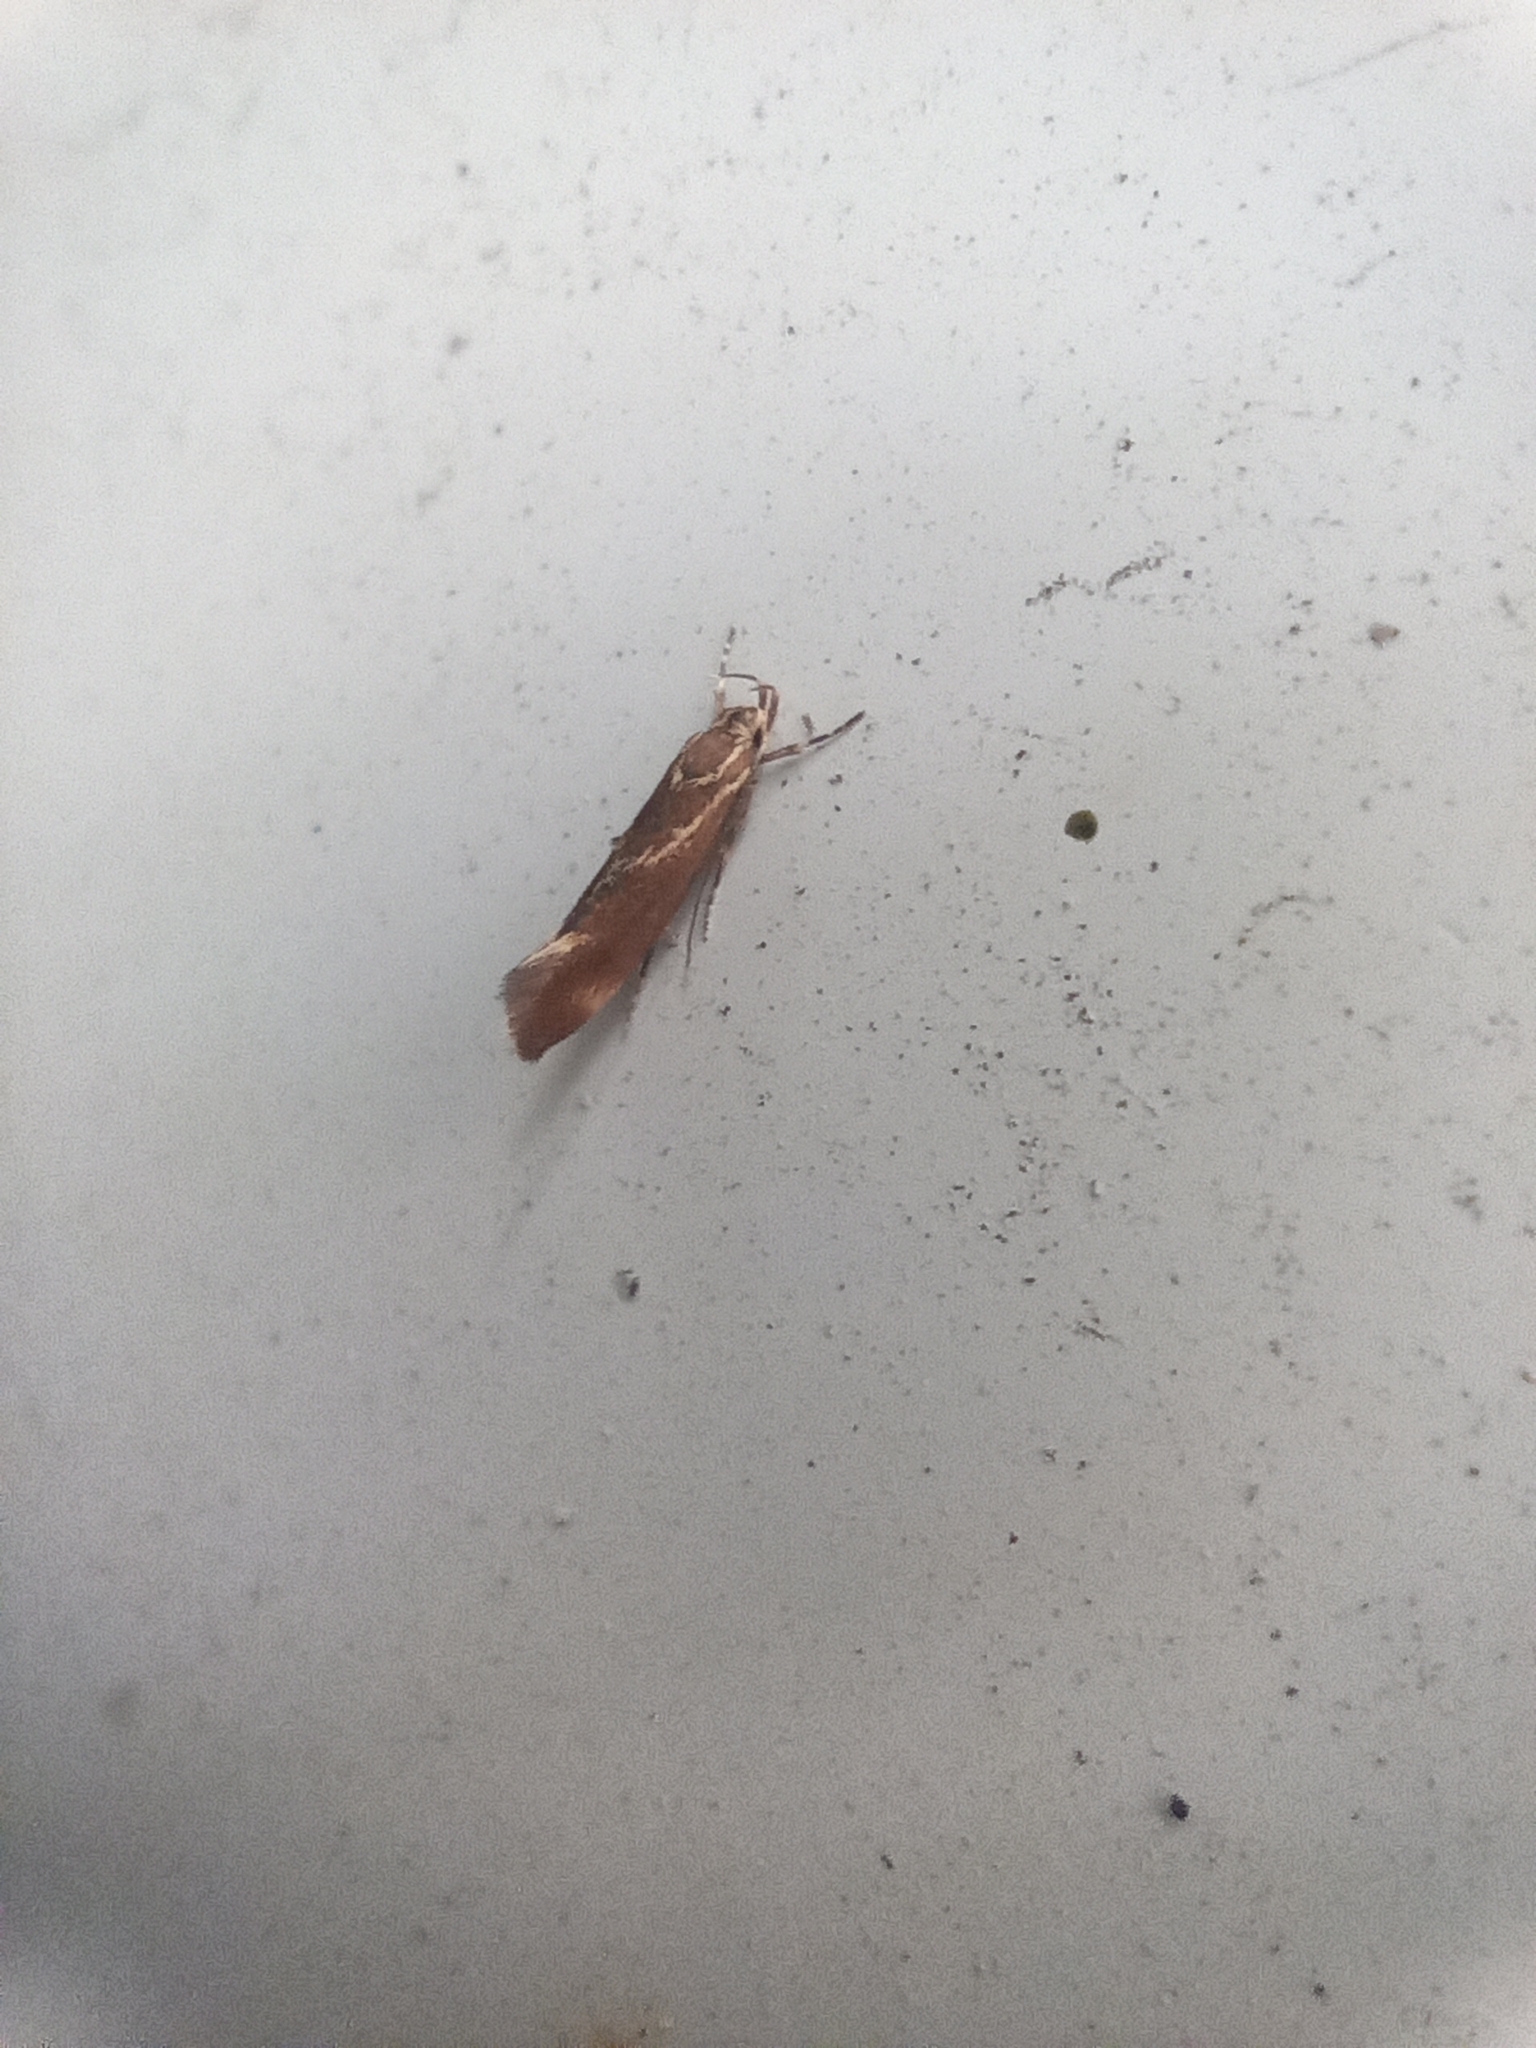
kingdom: Animalia
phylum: Arthropoda
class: Insecta
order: Lepidoptera
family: Oecophoridae
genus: Borkhausenia
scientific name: Borkhausenia italica
